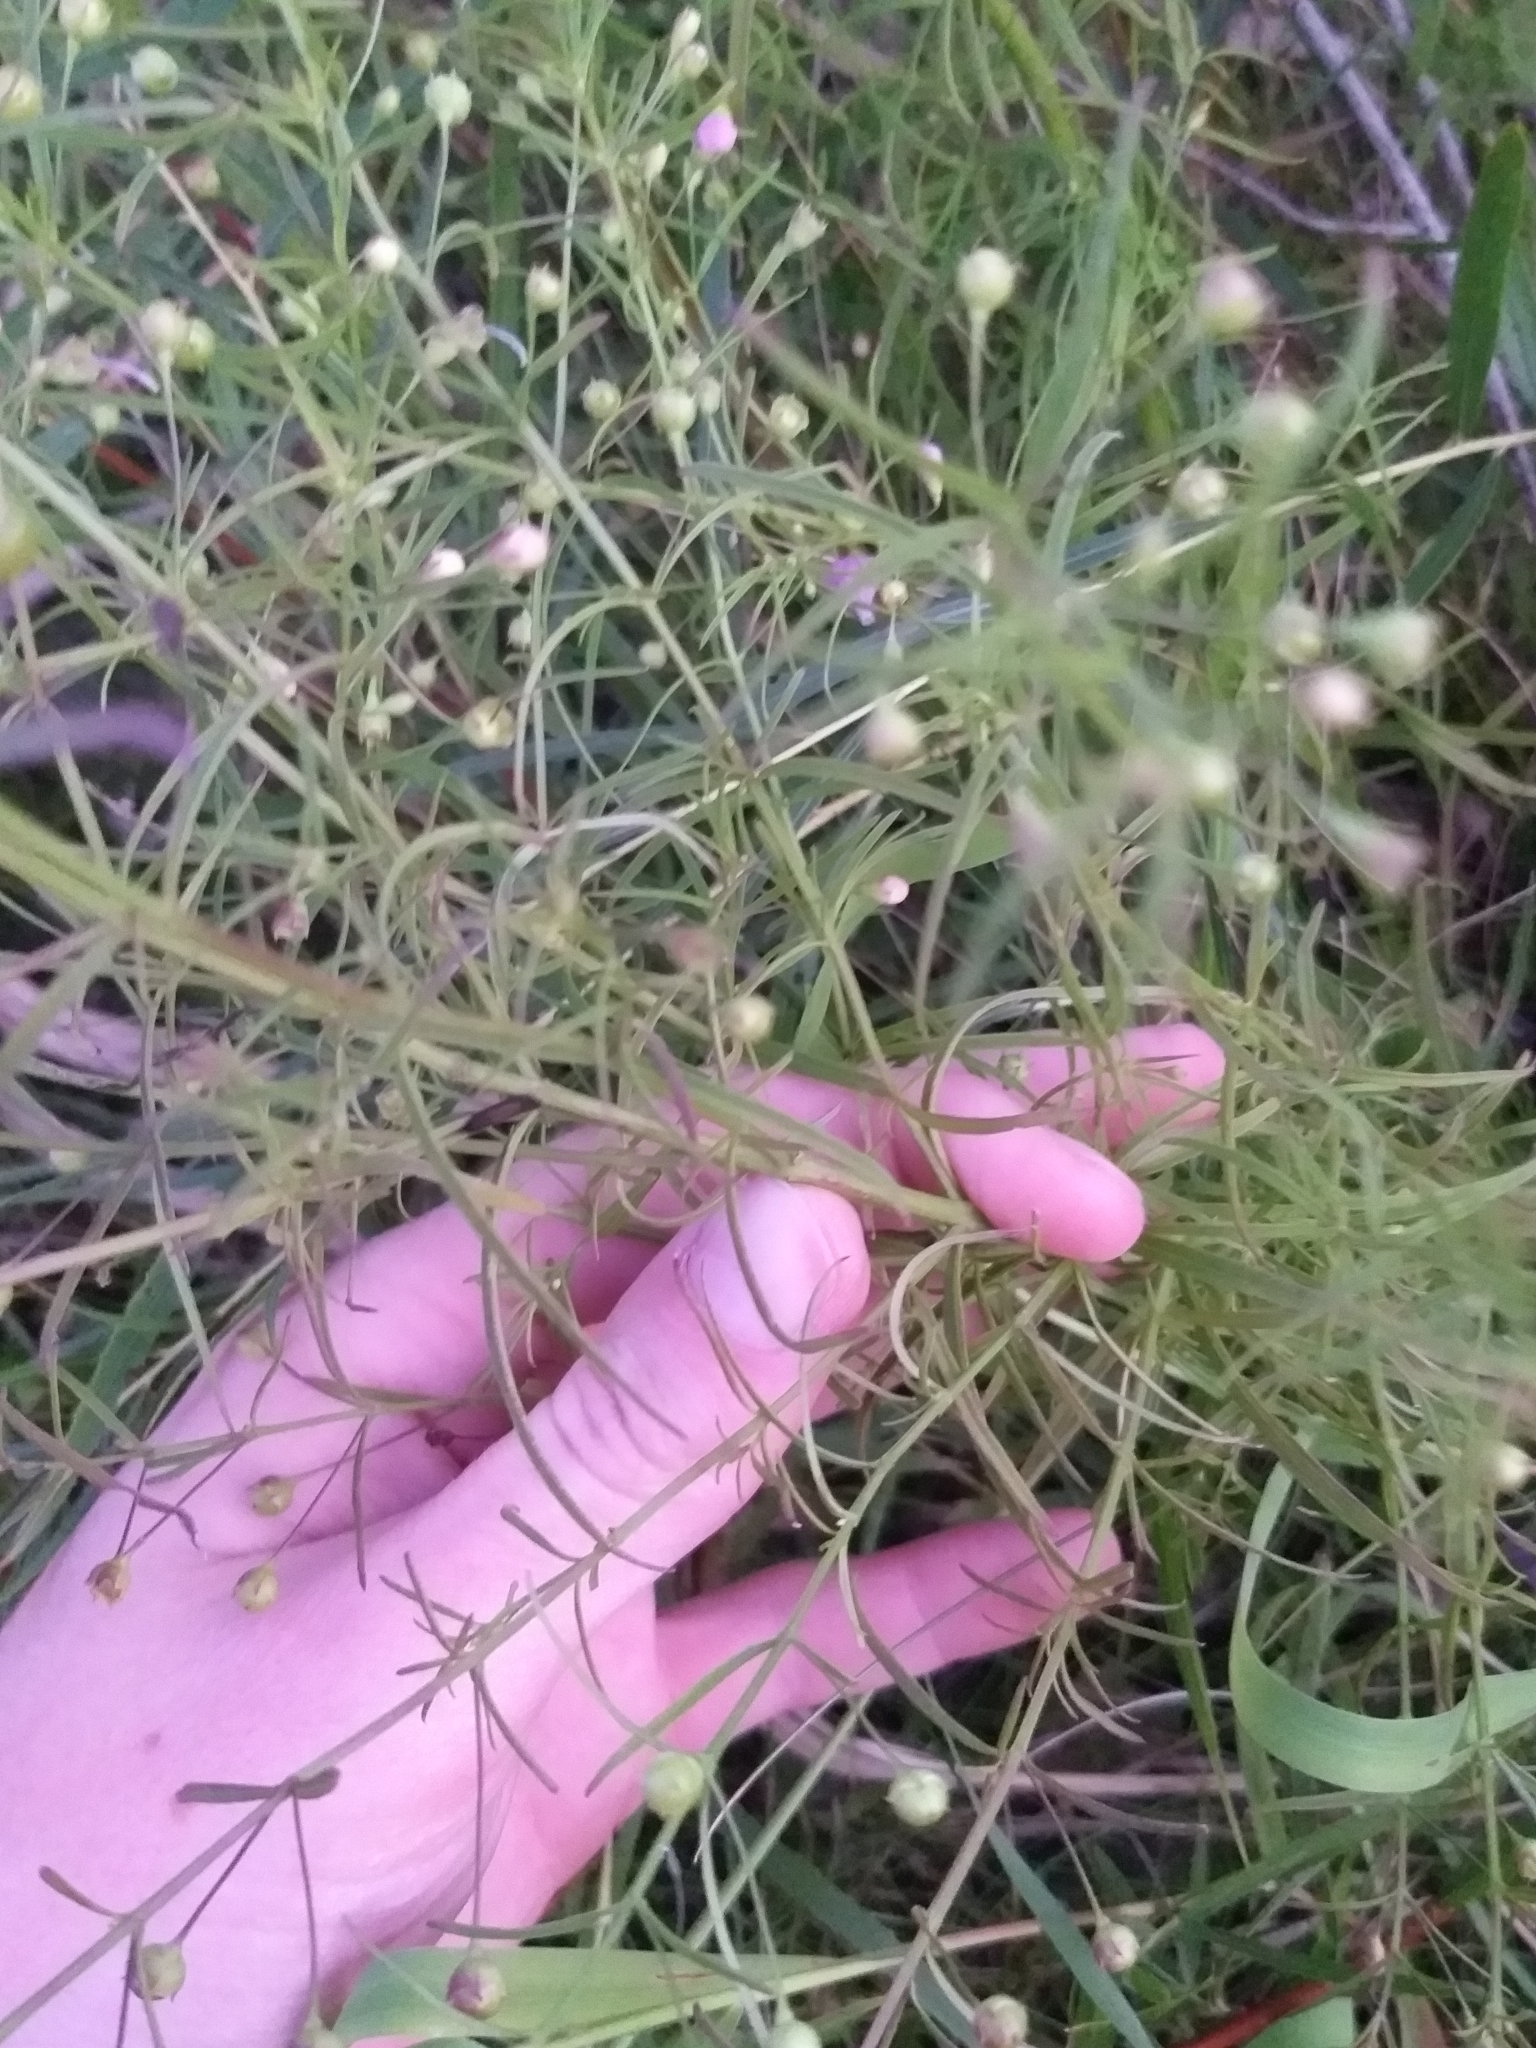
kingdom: Plantae
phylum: Tracheophyta
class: Magnoliopsida
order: Lamiales
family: Orobanchaceae
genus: Agalinis
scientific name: Agalinis tenuifolia
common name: Slender agalinis
